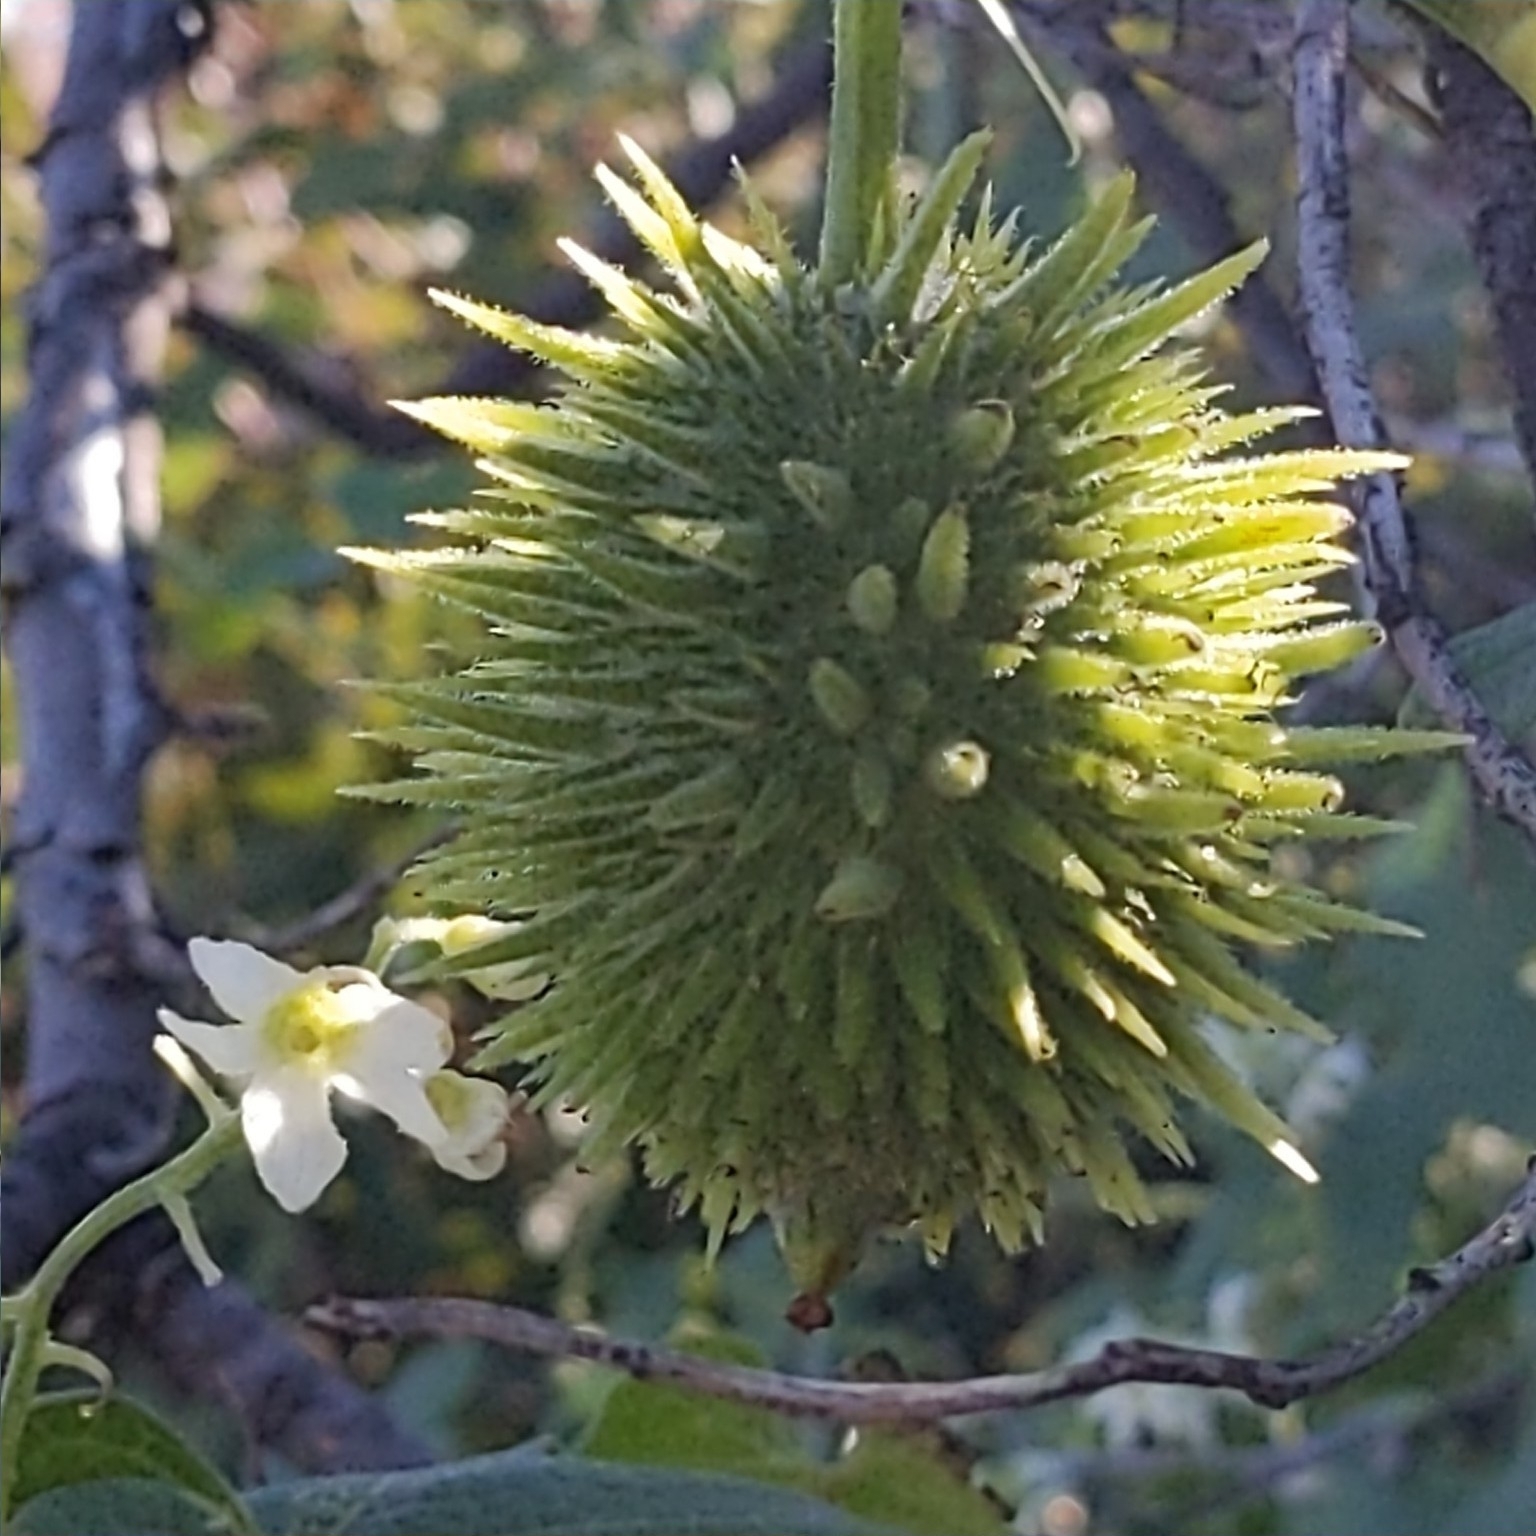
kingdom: Plantae
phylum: Tracheophyta
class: Magnoliopsida
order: Cucurbitales
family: Cucurbitaceae
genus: Marah
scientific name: Marah macrocarpa
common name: Cucamonga manroot
